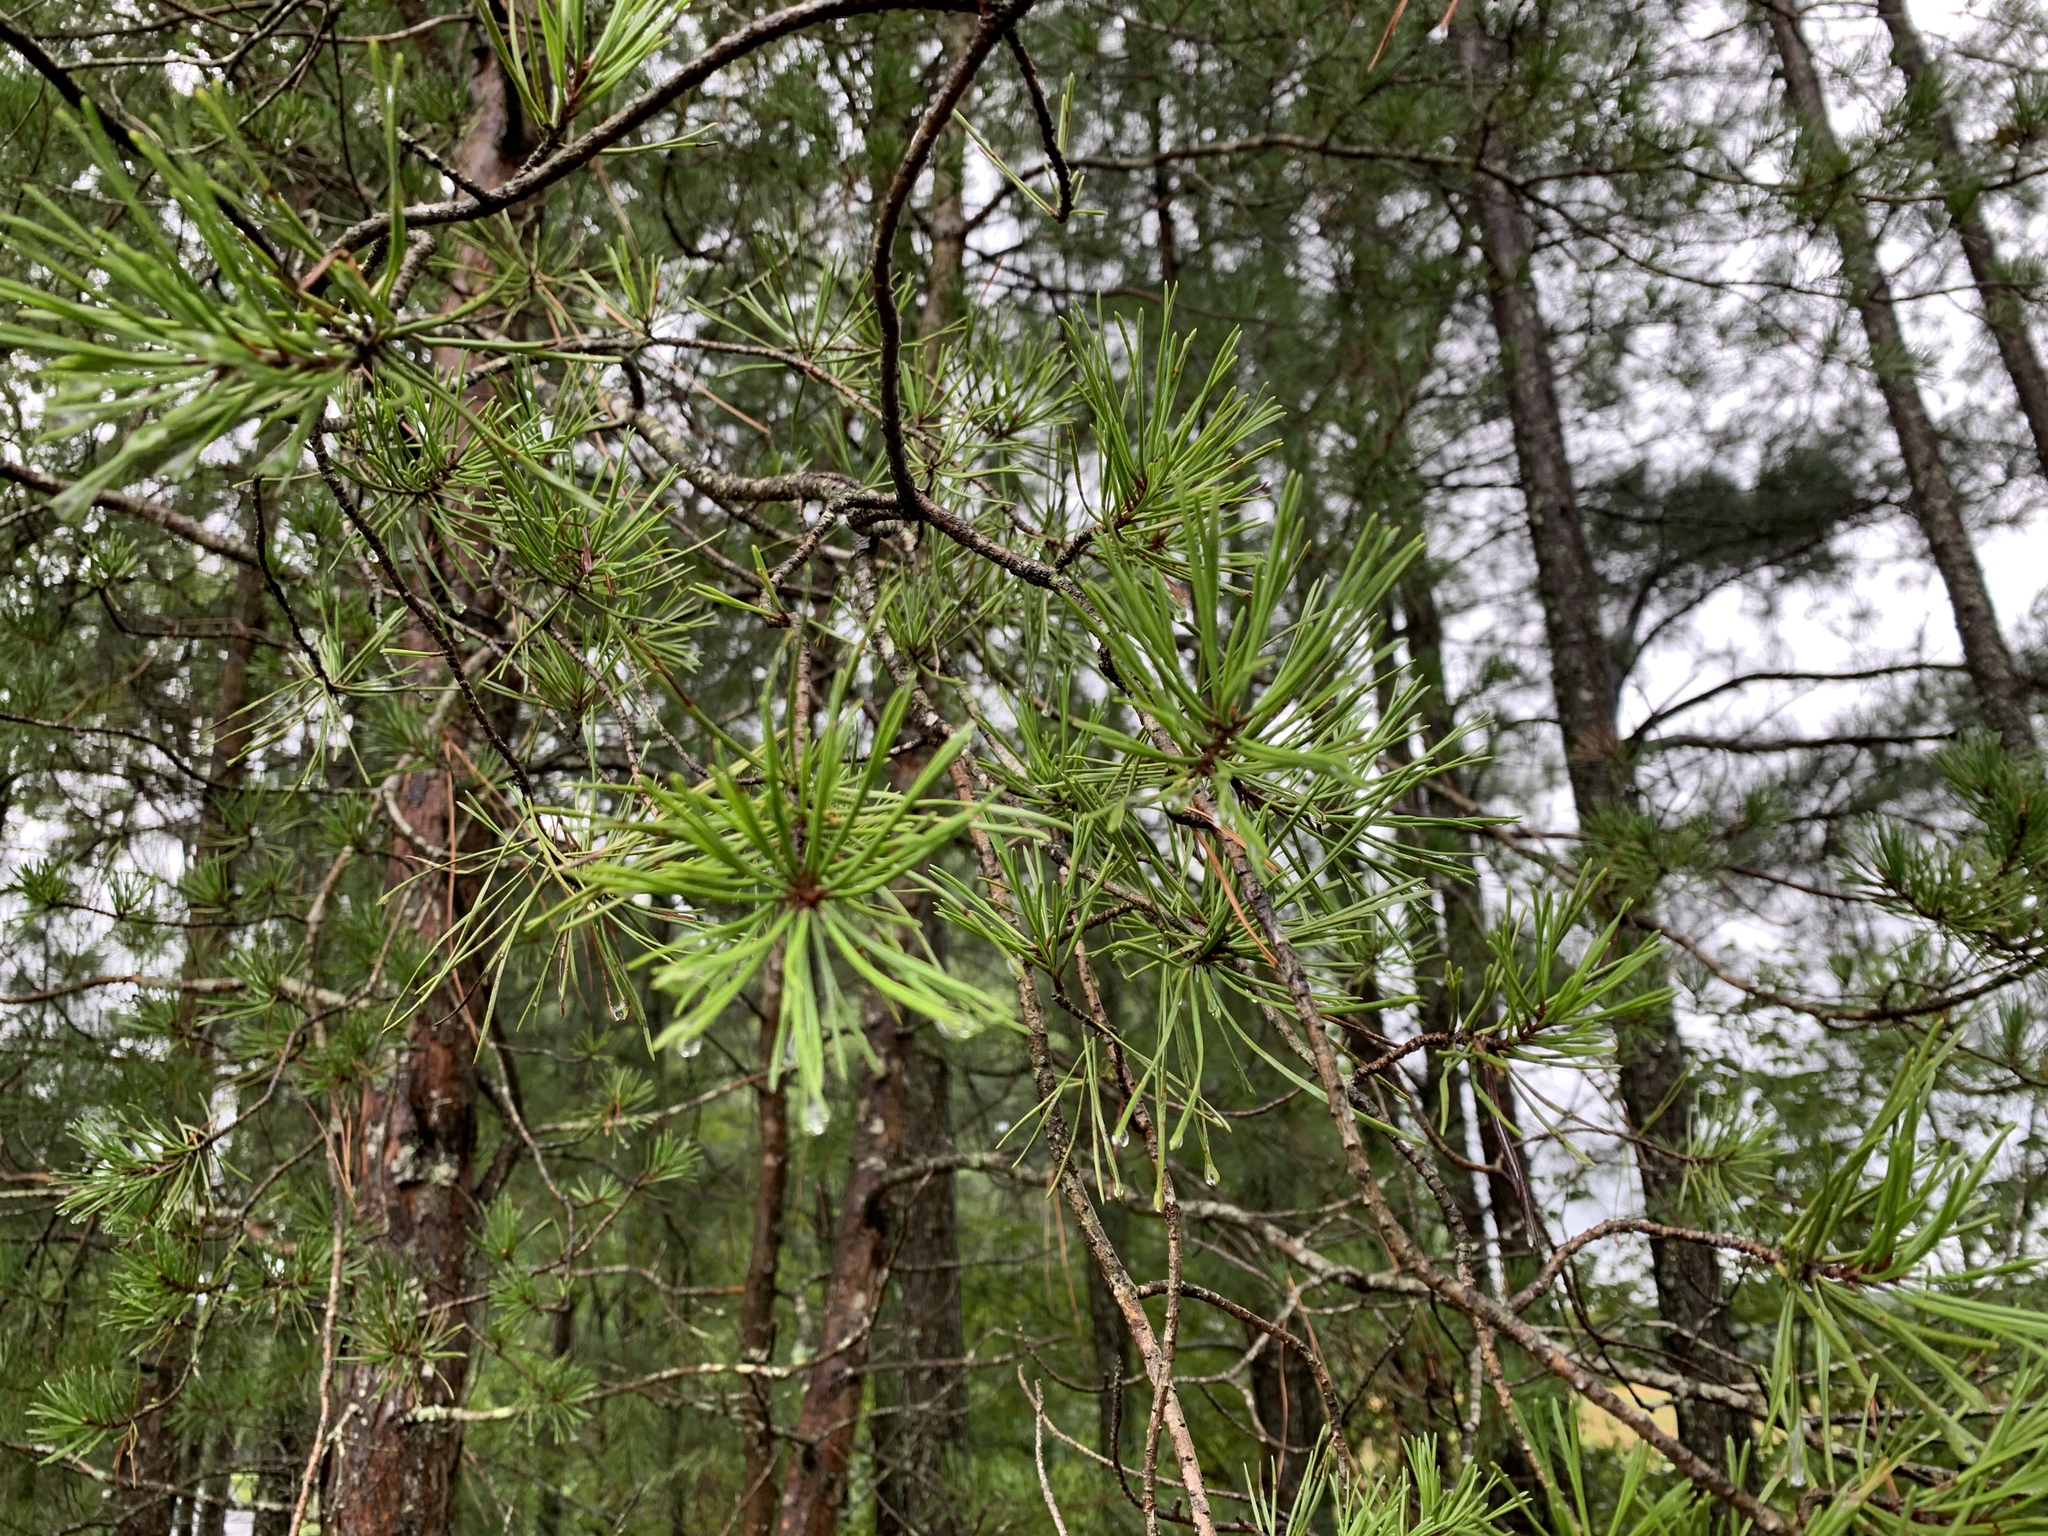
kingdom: Plantae
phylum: Tracheophyta
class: Pinopsida
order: Pinales
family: Pinaceae
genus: Pinus
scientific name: Pinus virginiana
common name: Scrub pine
